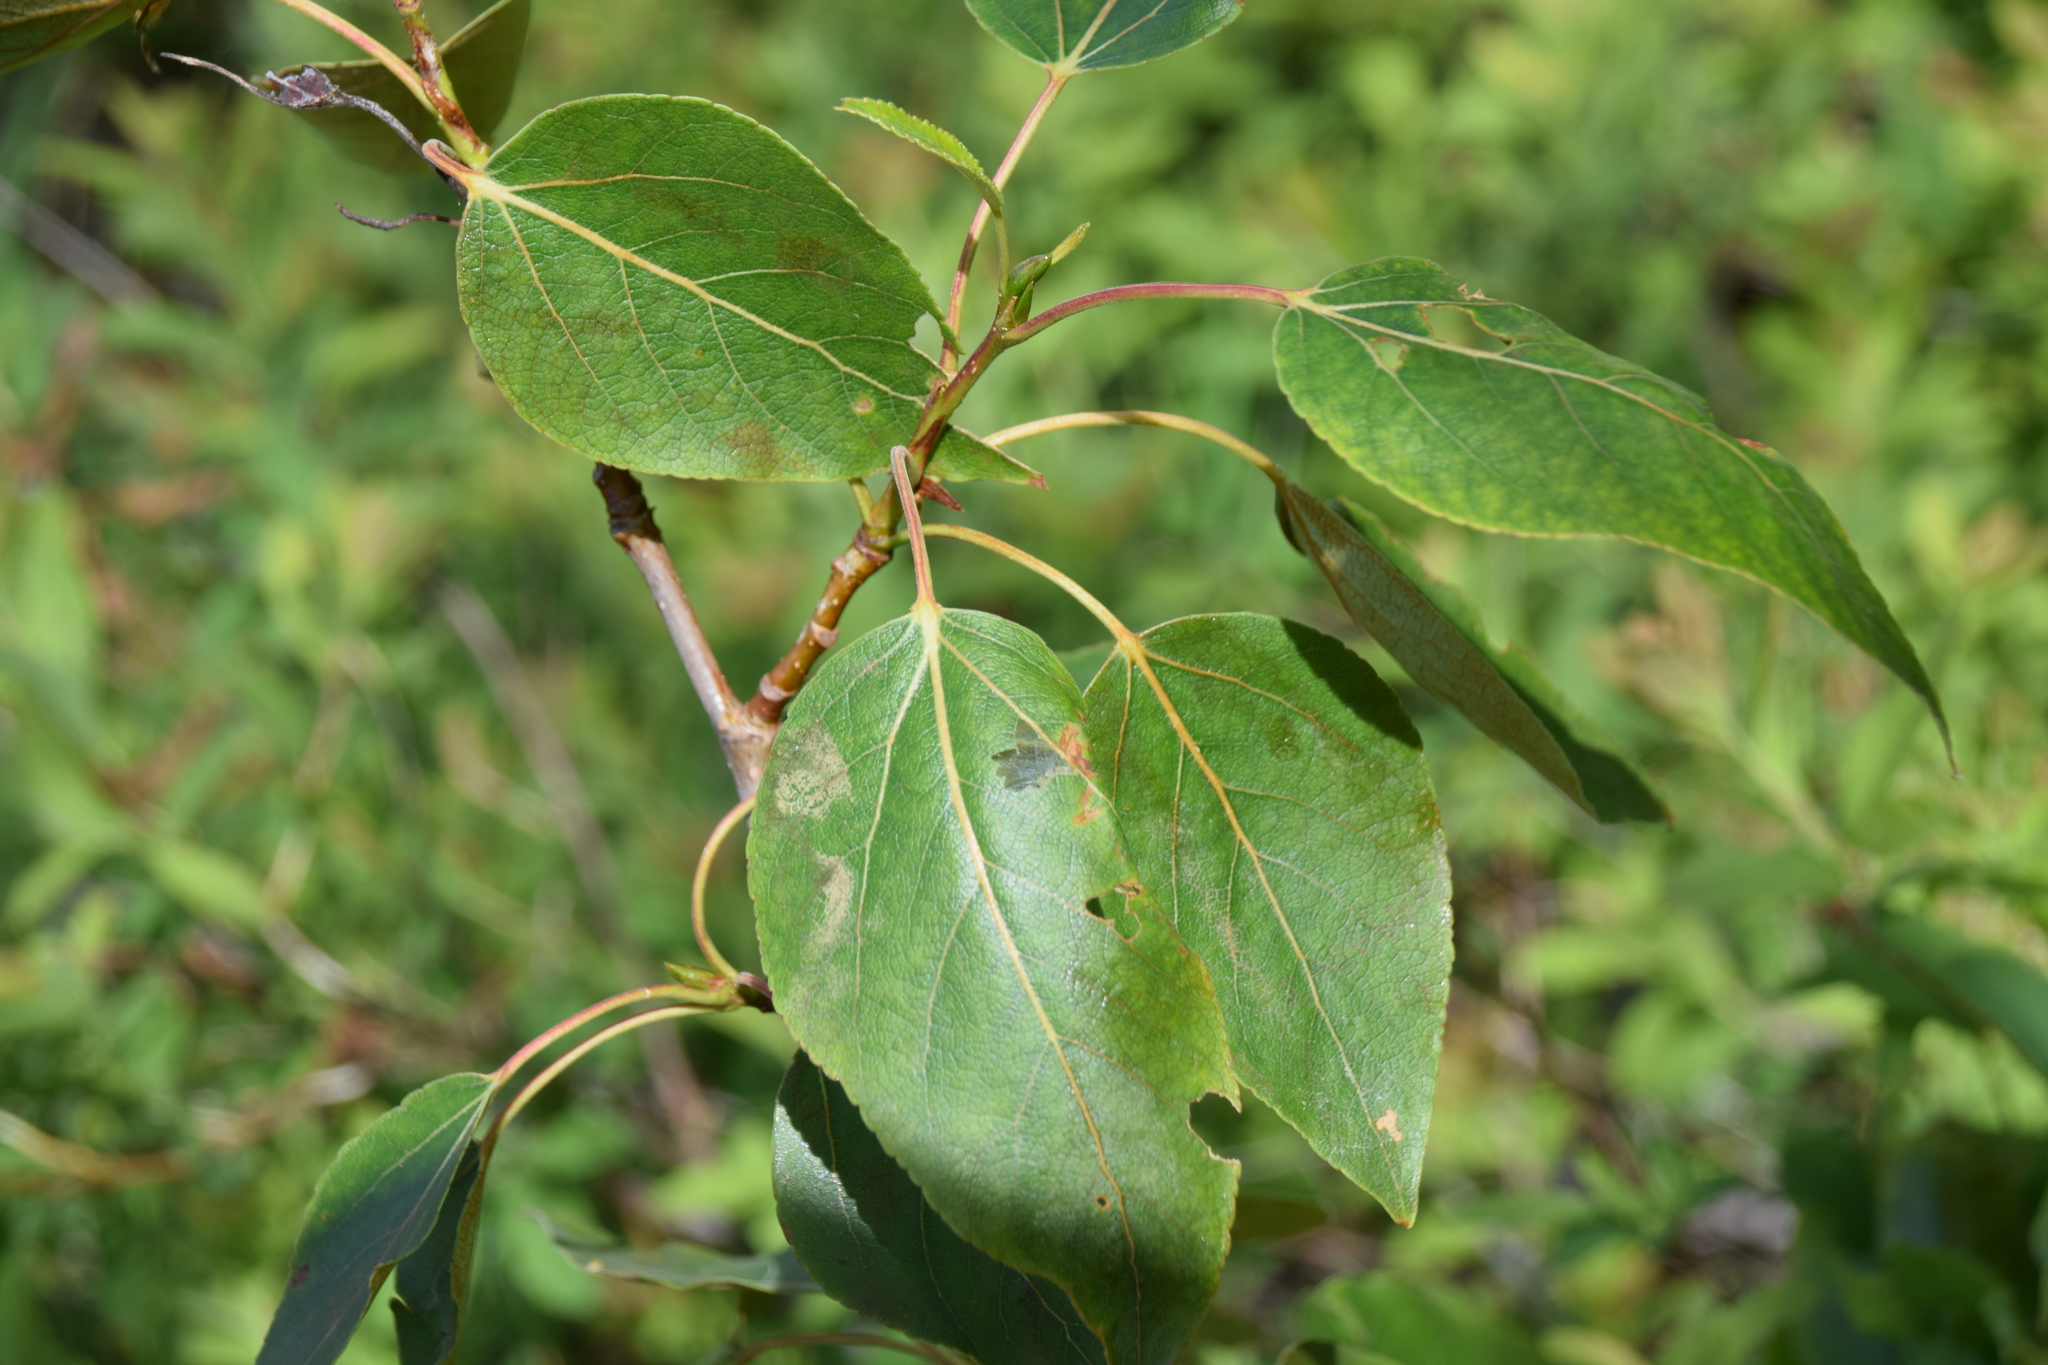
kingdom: Plantae
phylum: Tracheophyta
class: Magnoliopsida
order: Malpighiales
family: Salicaceae
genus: Populus
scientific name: Populus balsamifera
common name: Balsam poplar
